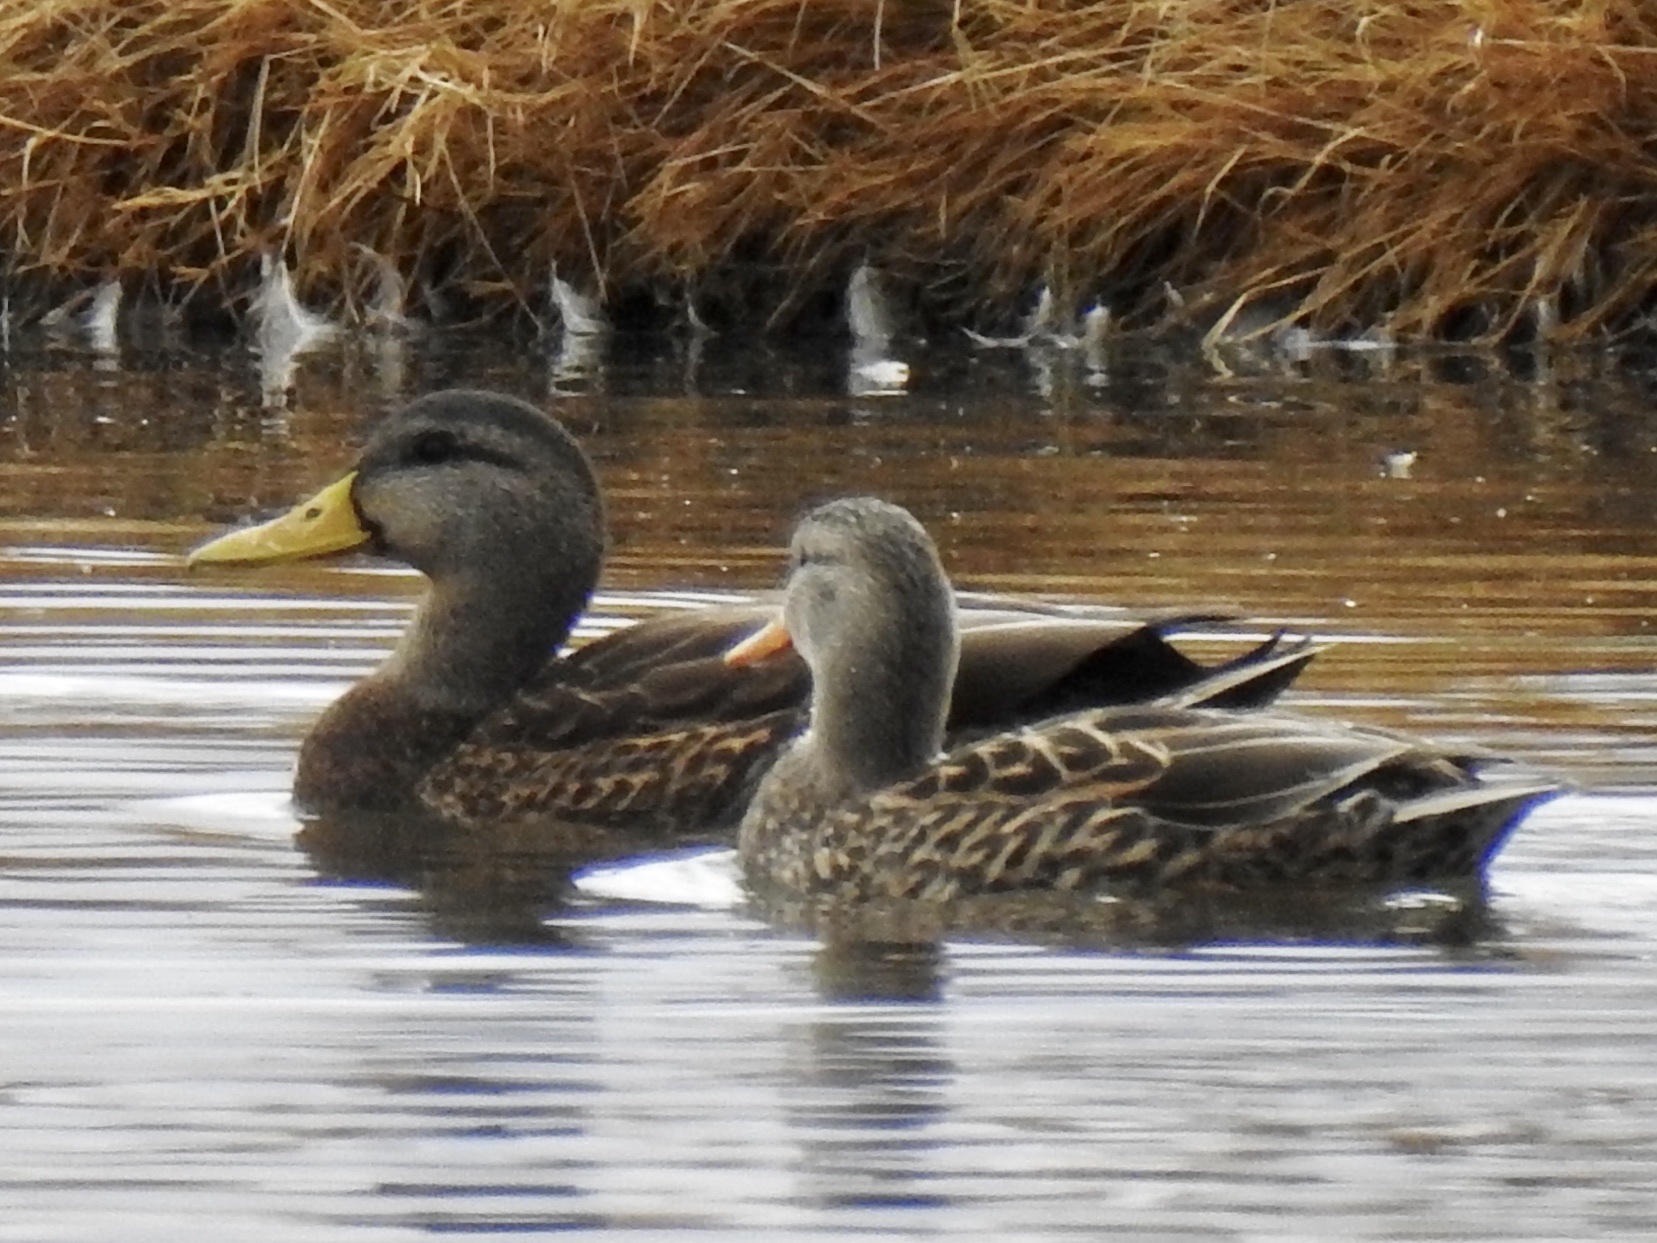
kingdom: Animalia
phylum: Chordata
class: Aves
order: Anseriformes
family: Anatidae
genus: Anas
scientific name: Anas
